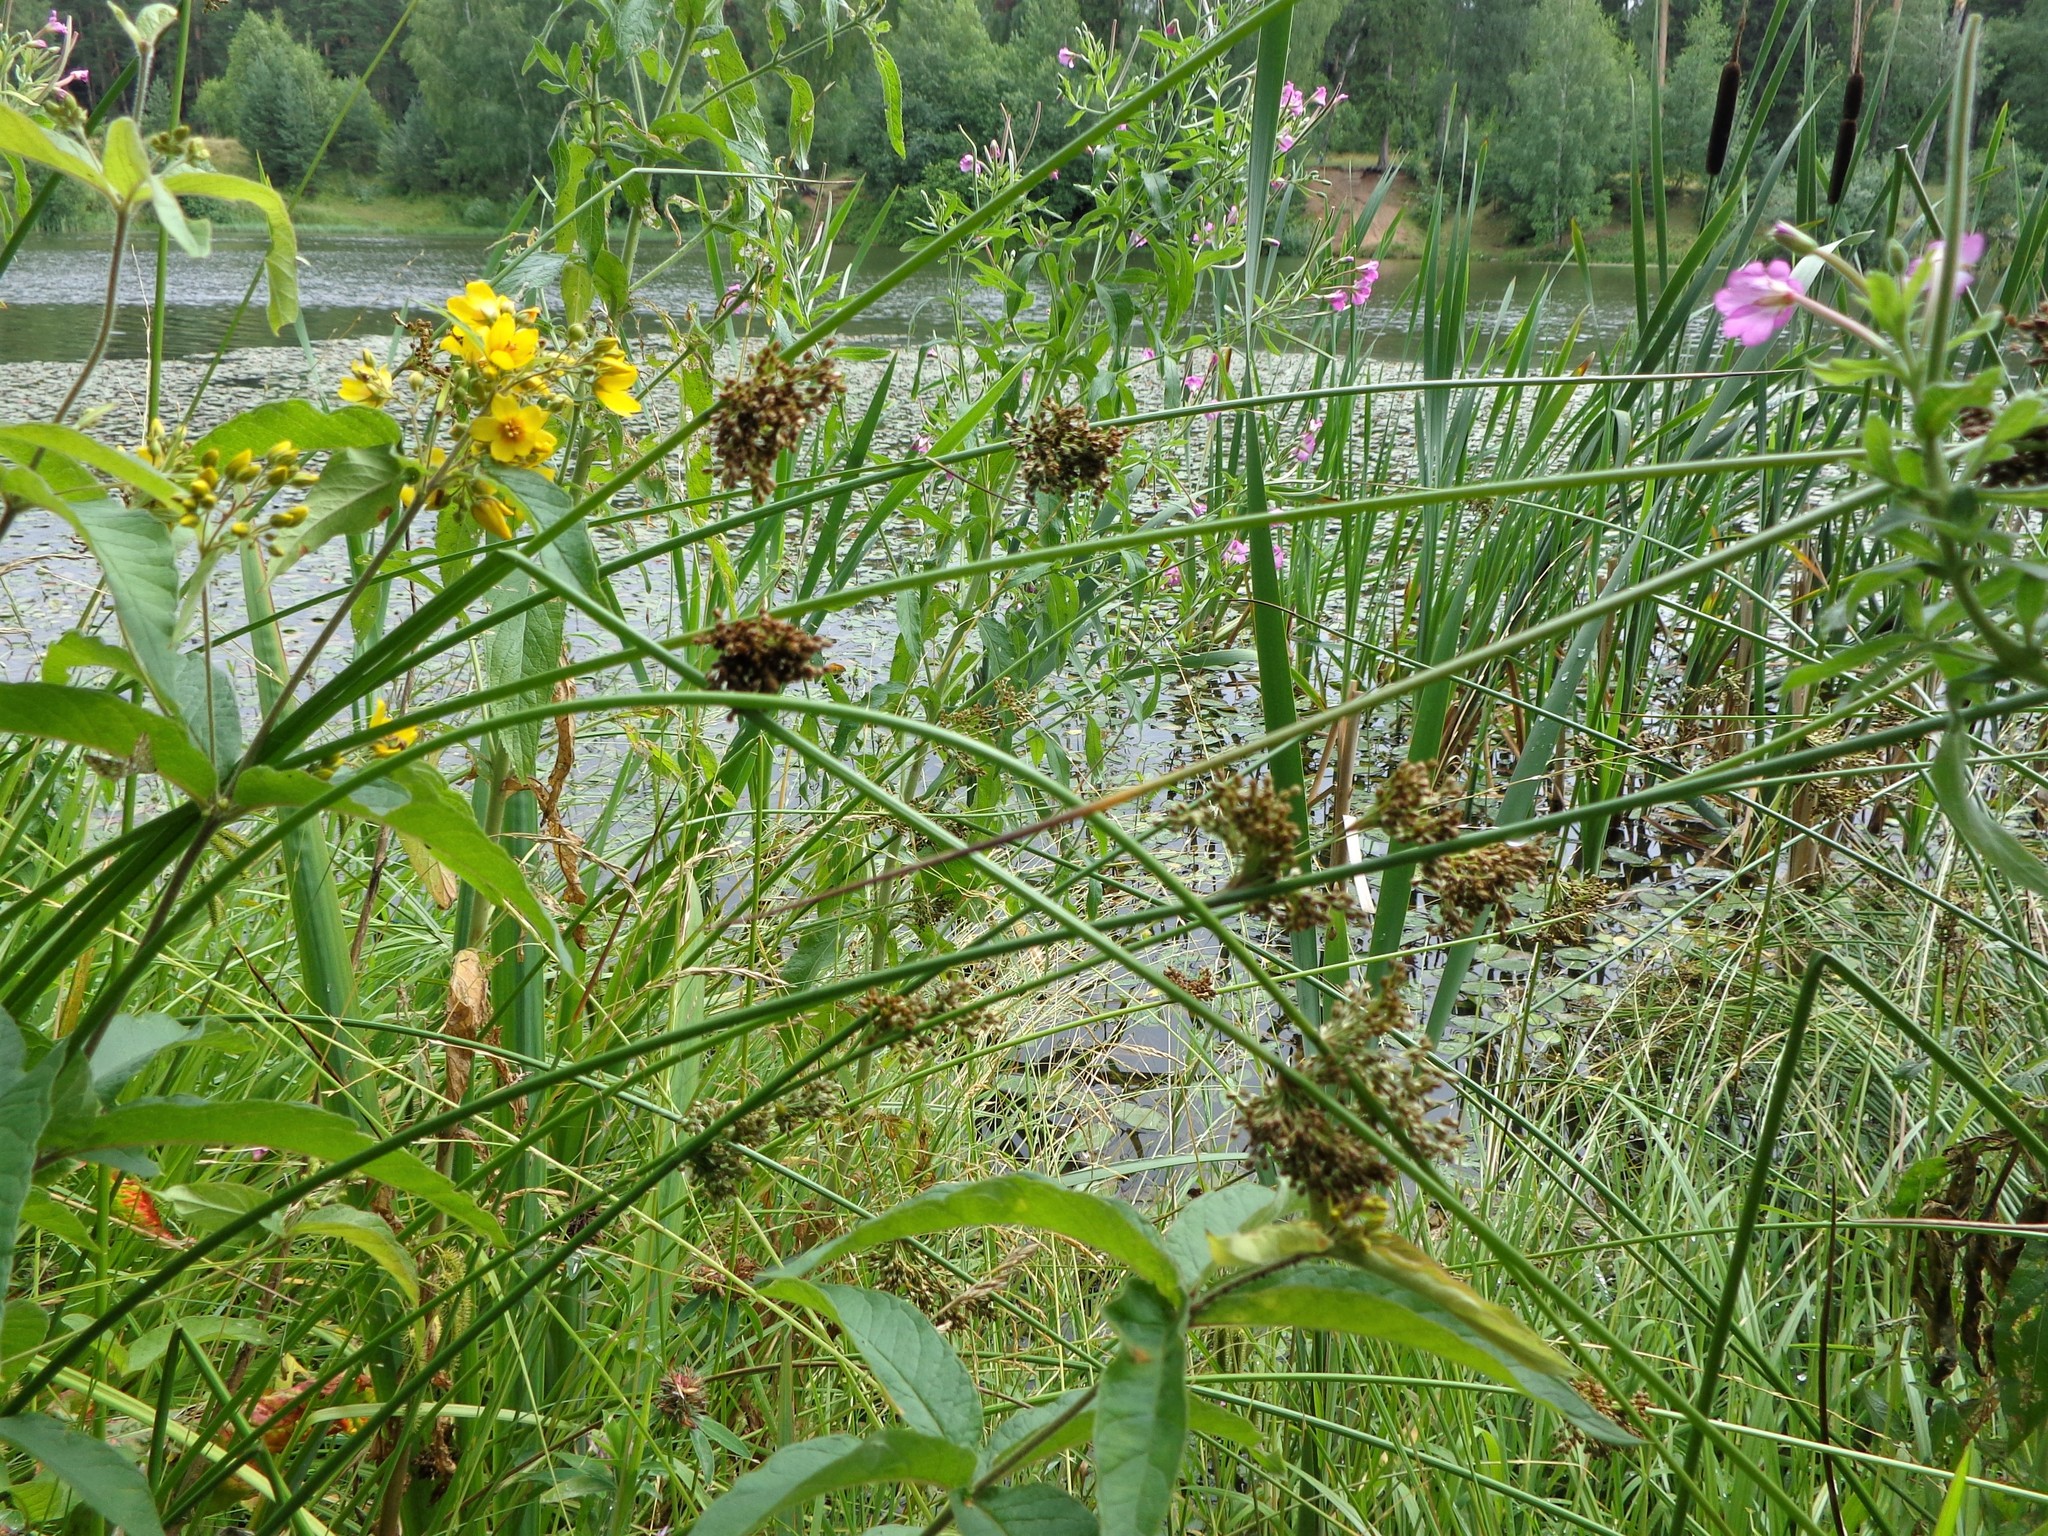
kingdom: Plantae
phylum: Tracheophyta
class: Liliopsida
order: Poales
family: Juncaceae
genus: Juncus
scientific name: Juncus effusus
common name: Soft rush
